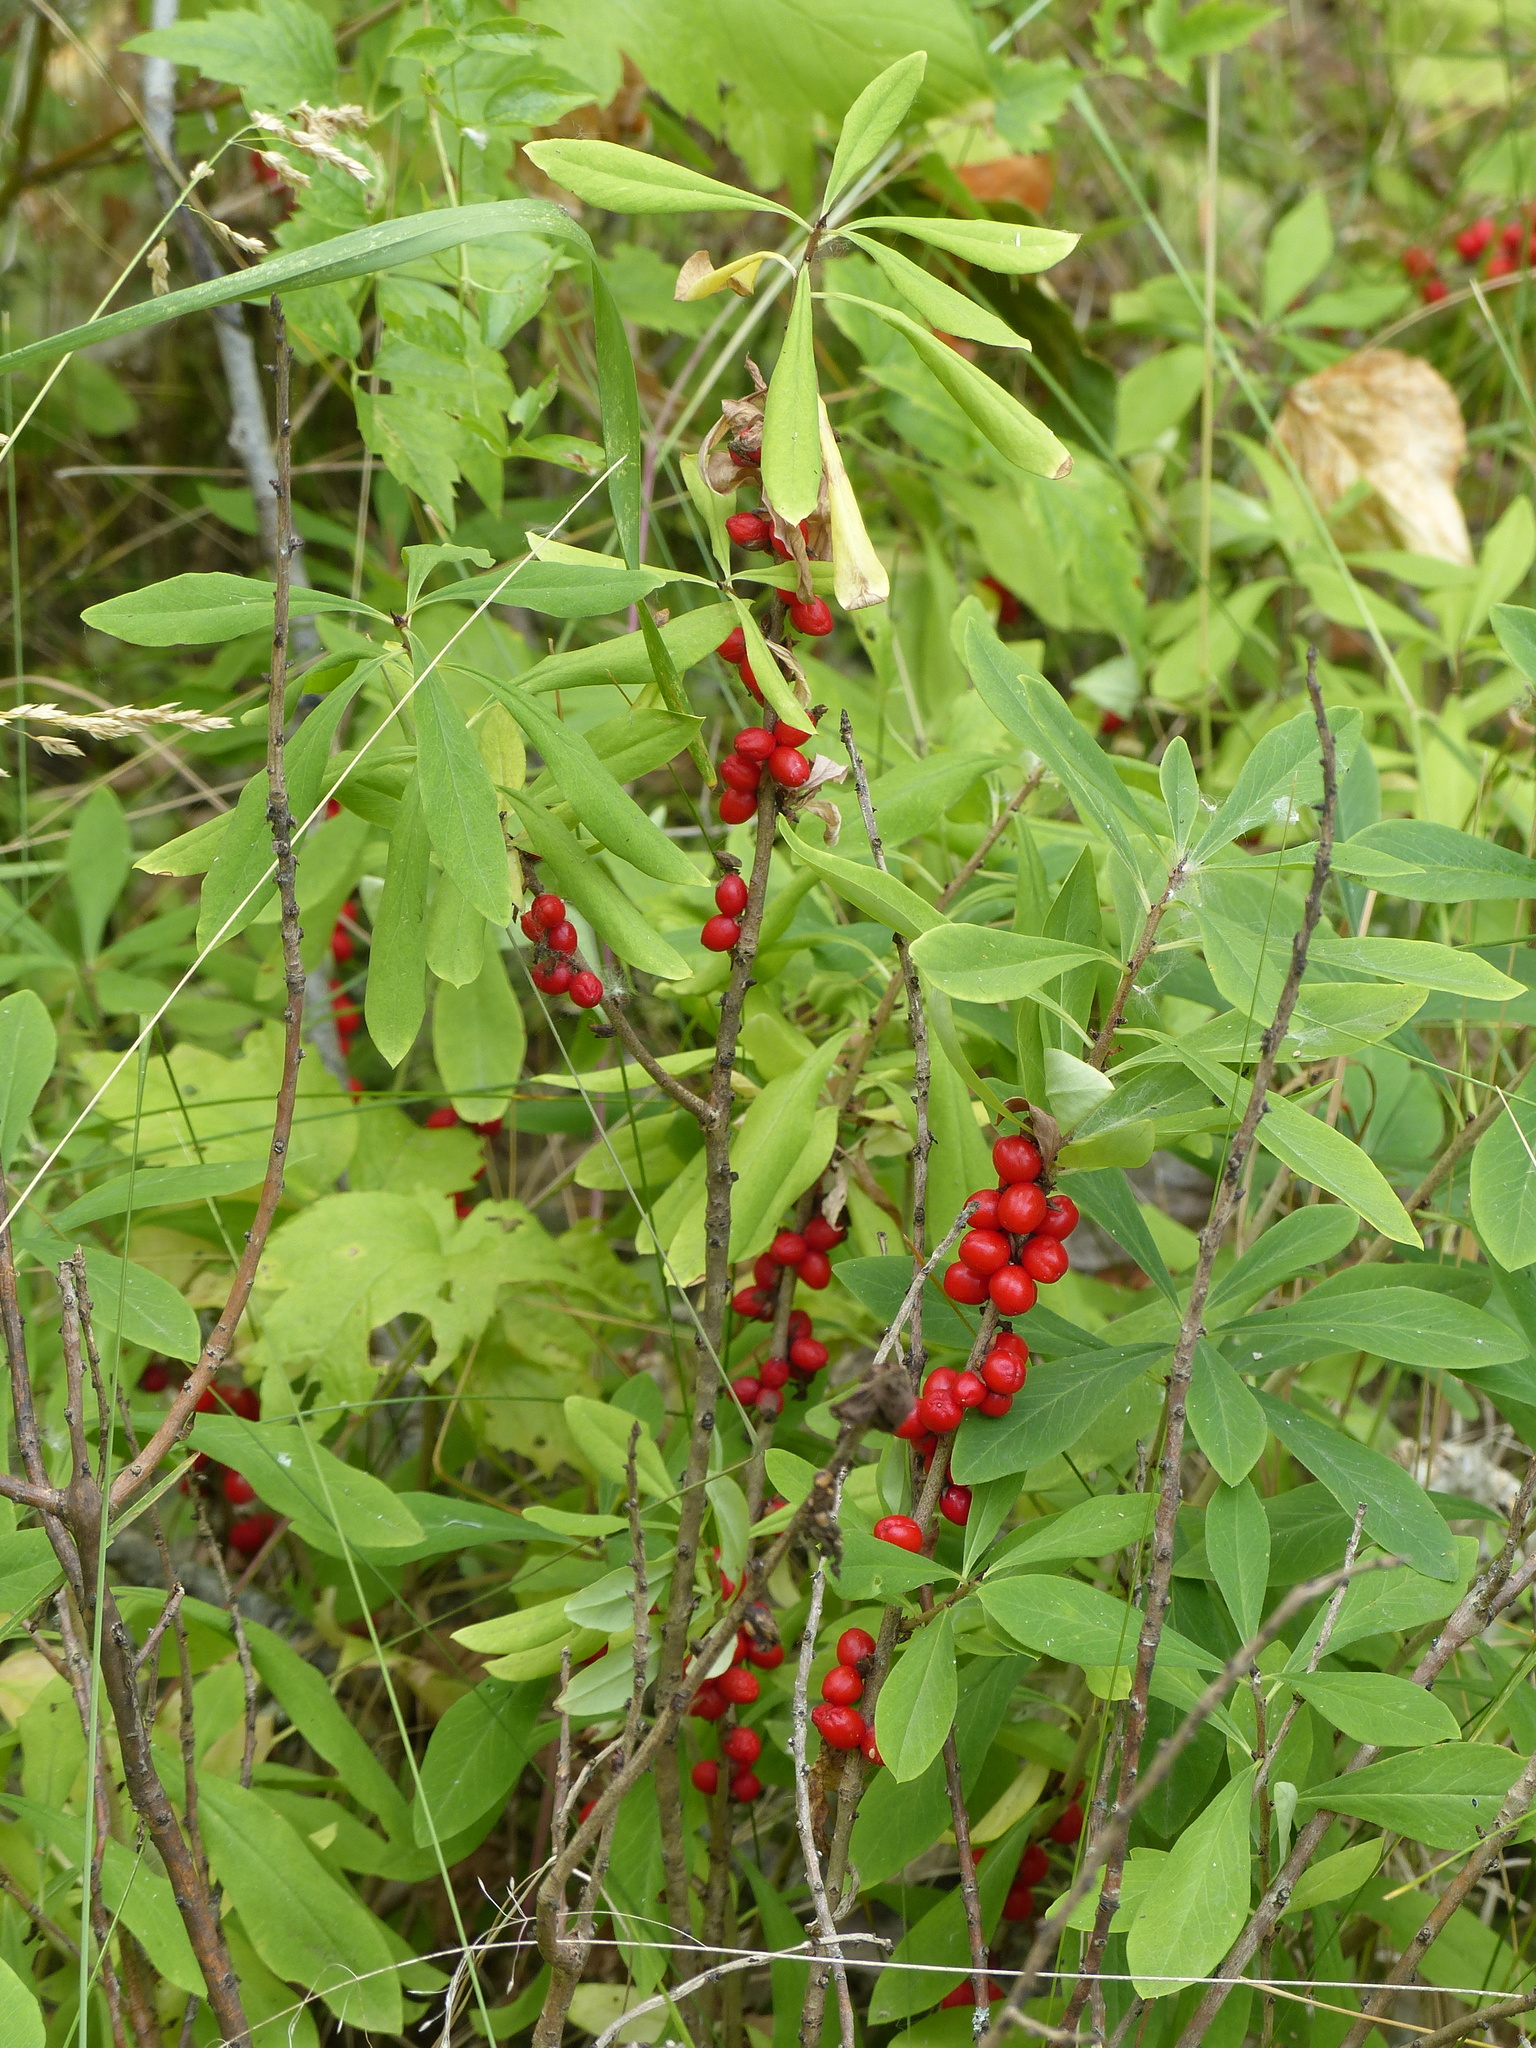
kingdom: Plantae
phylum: Tracheophyta
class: Magnoliopsida
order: Malvales
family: Thymelaeaceae
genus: Daphne
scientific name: Daphne mezereum
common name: Mezereon
